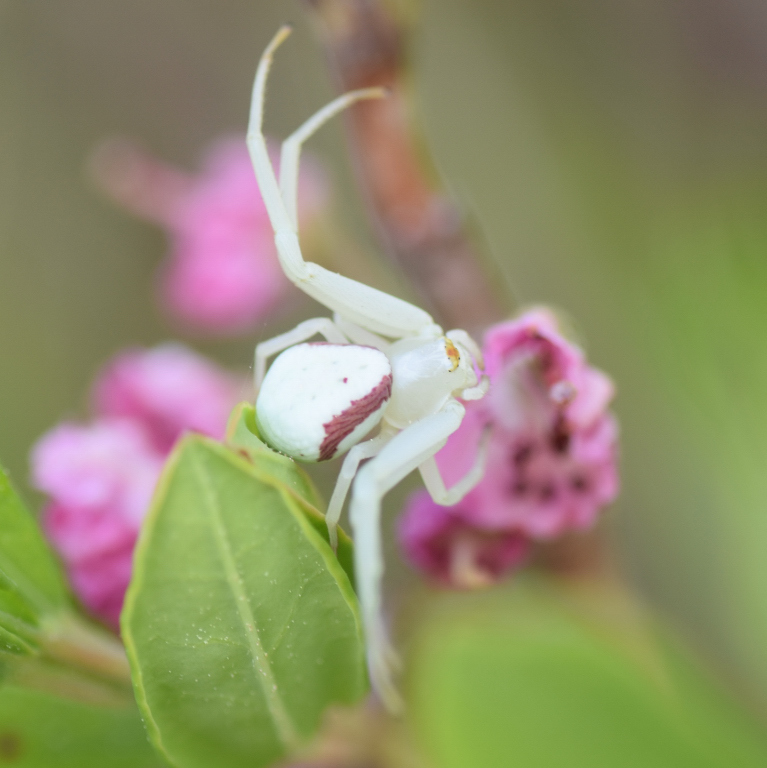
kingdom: Animalia
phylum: Arthropoda
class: Arachnida
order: Araneae
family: Thomisidae
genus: Misumena
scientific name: Misumena vatia
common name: Goldenrod crab spider
